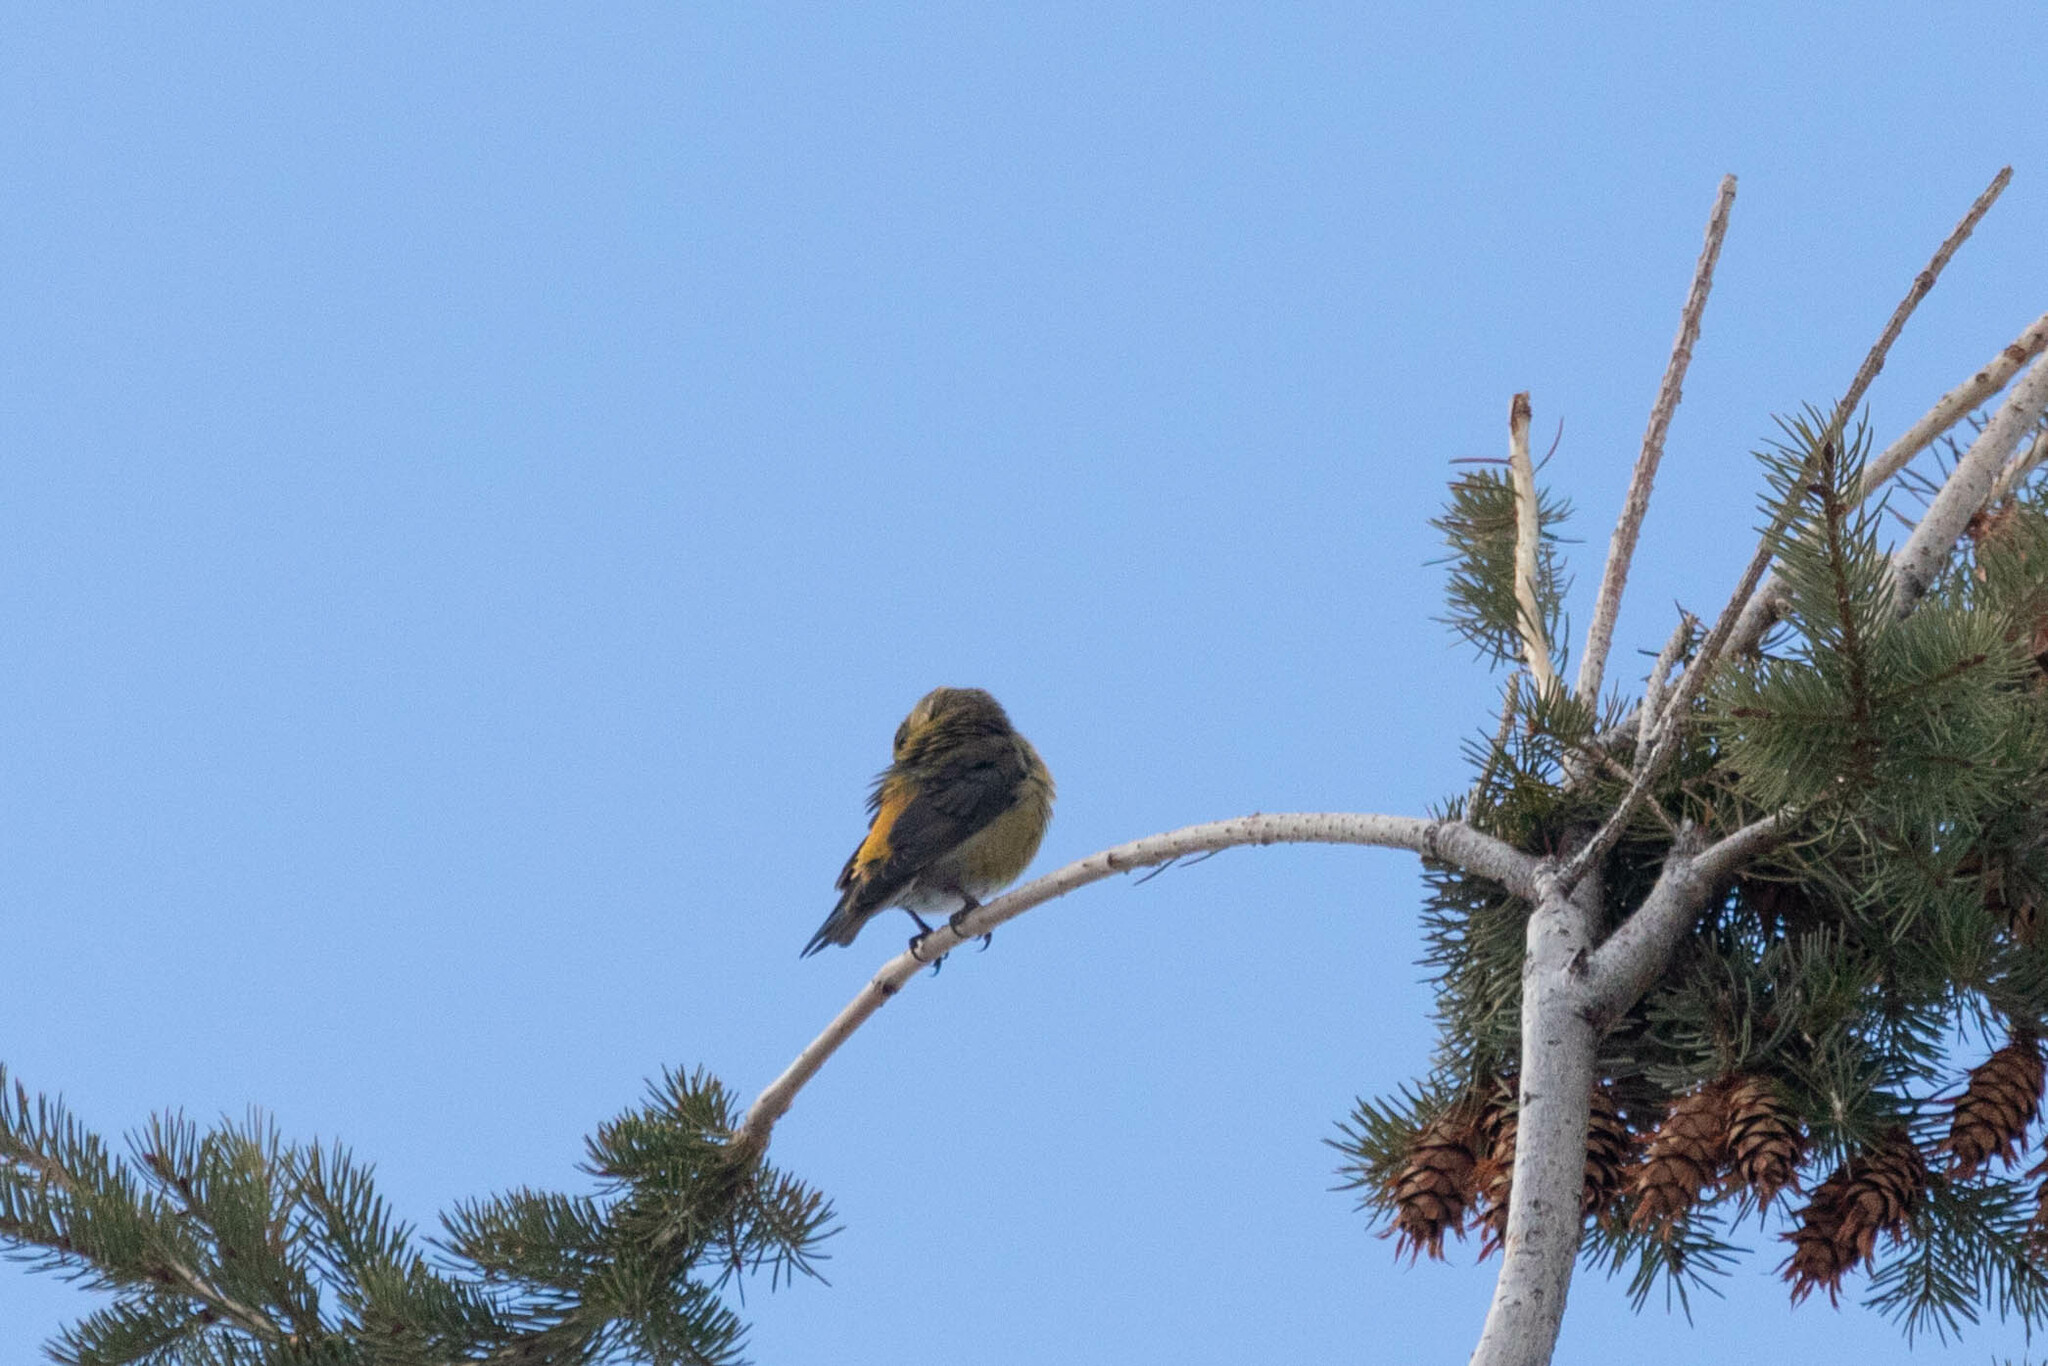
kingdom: Animalia
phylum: Chordata
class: Aves
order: Passeriformes
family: Fringillidae
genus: Loxia
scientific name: Loxia curvirostra
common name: Red crossbill
